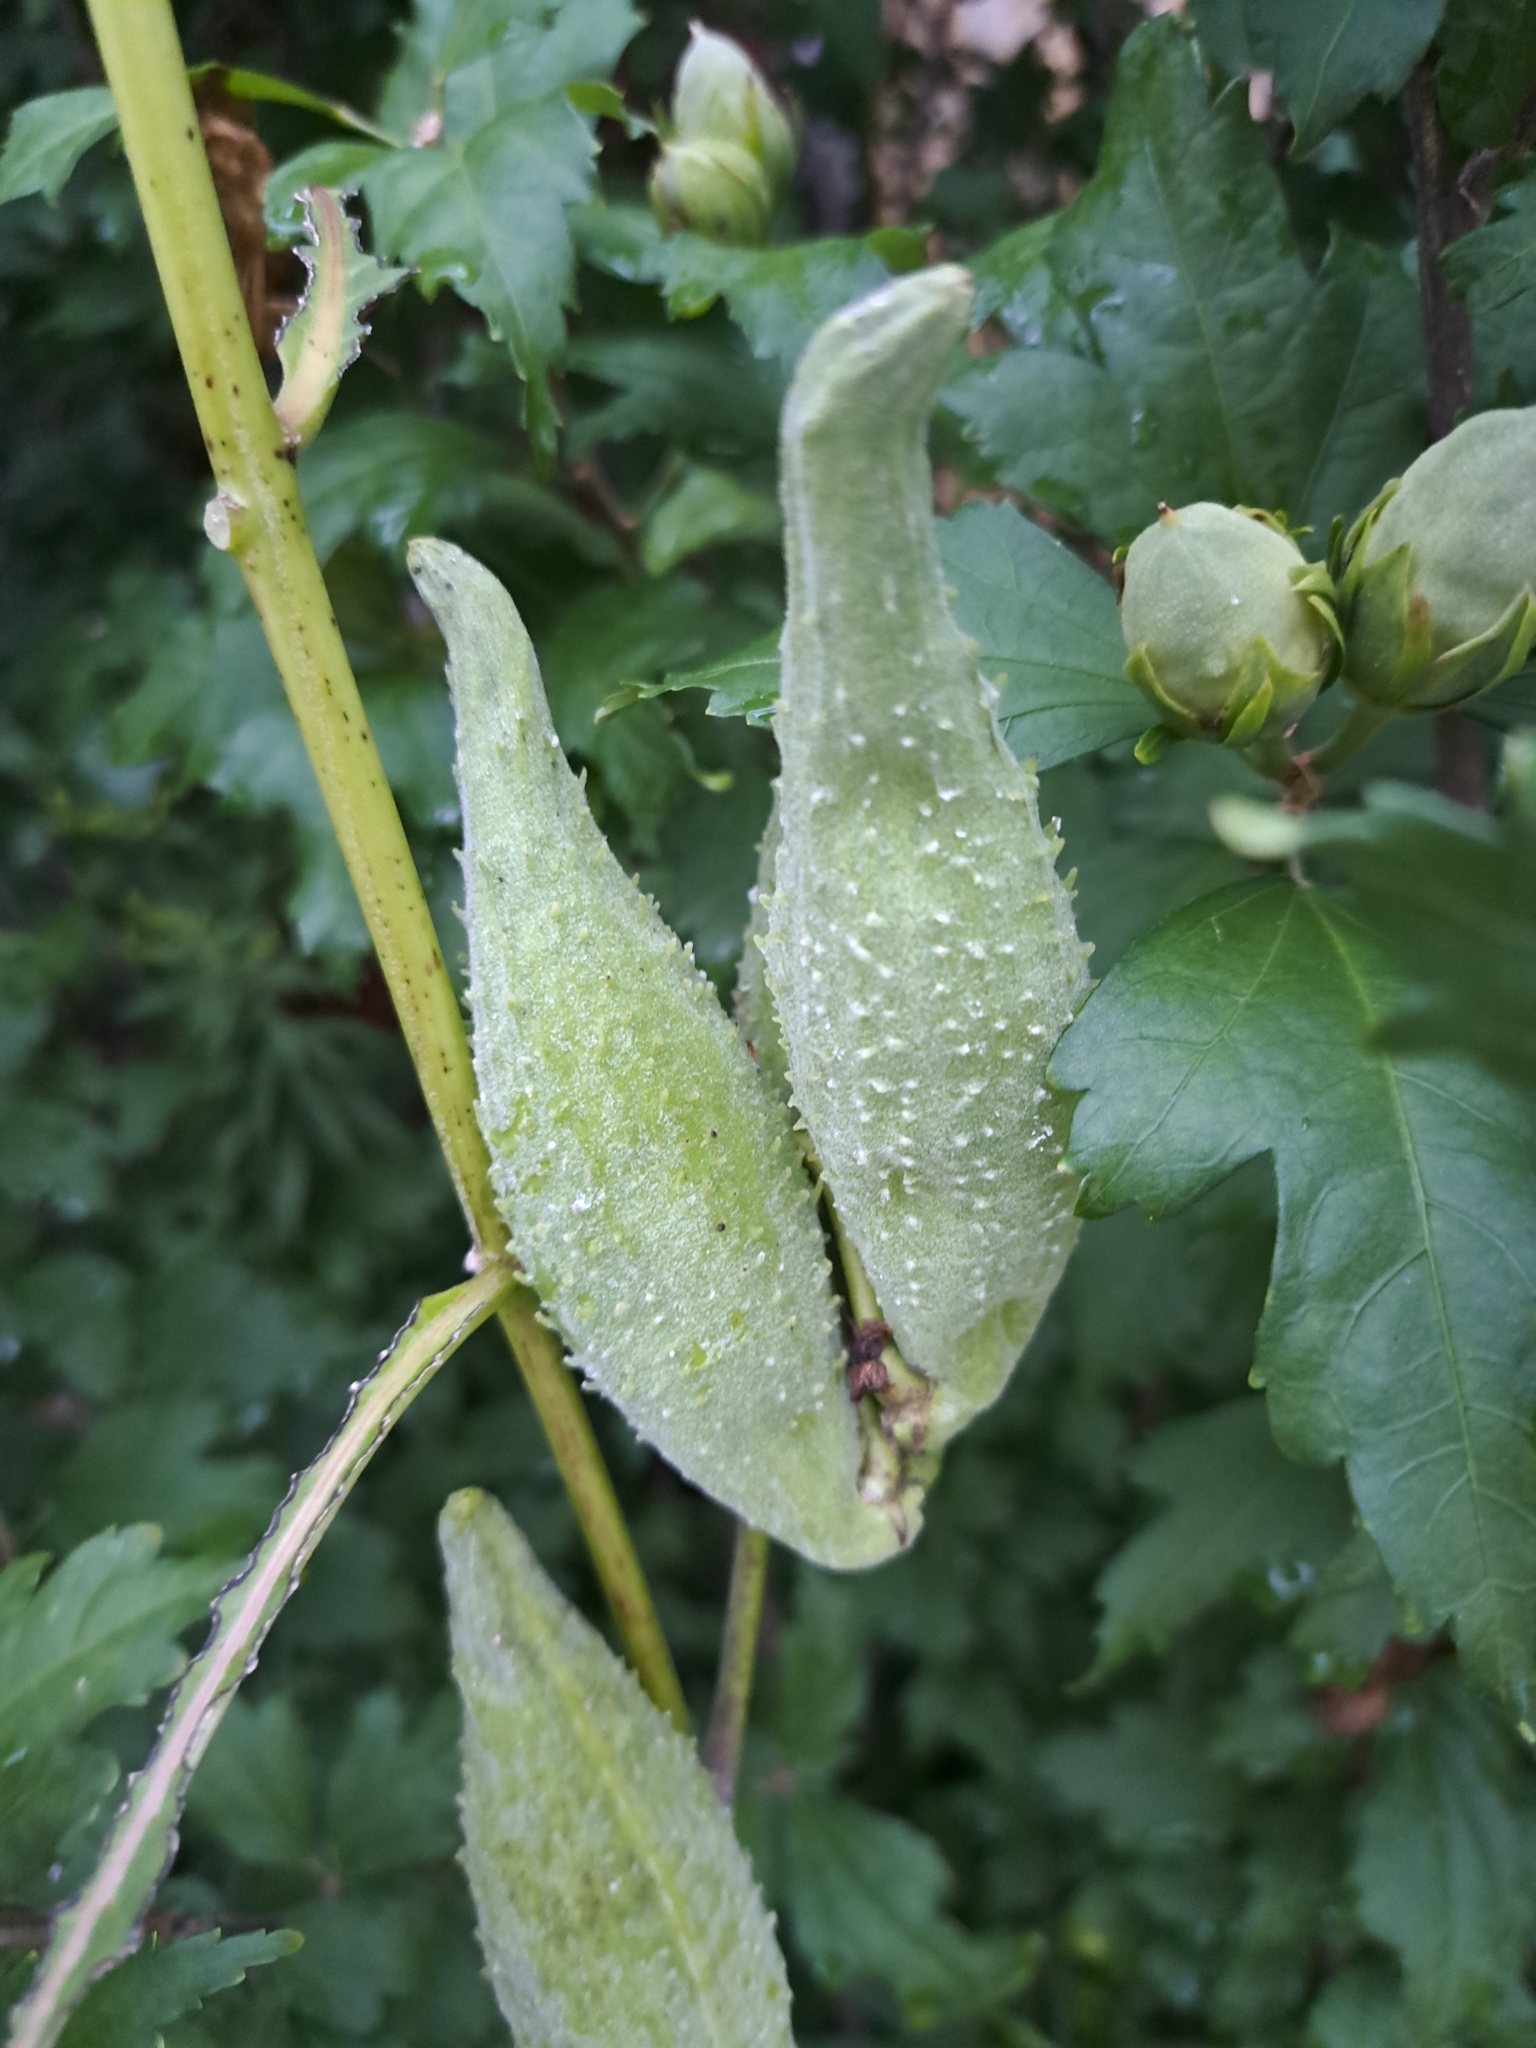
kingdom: Plantae
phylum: Tracheophyta
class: Magnoliopsida
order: Gentianales
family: Apocynaceae
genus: Asclepias
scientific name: Asclepias syriaca
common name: Common milkweed
